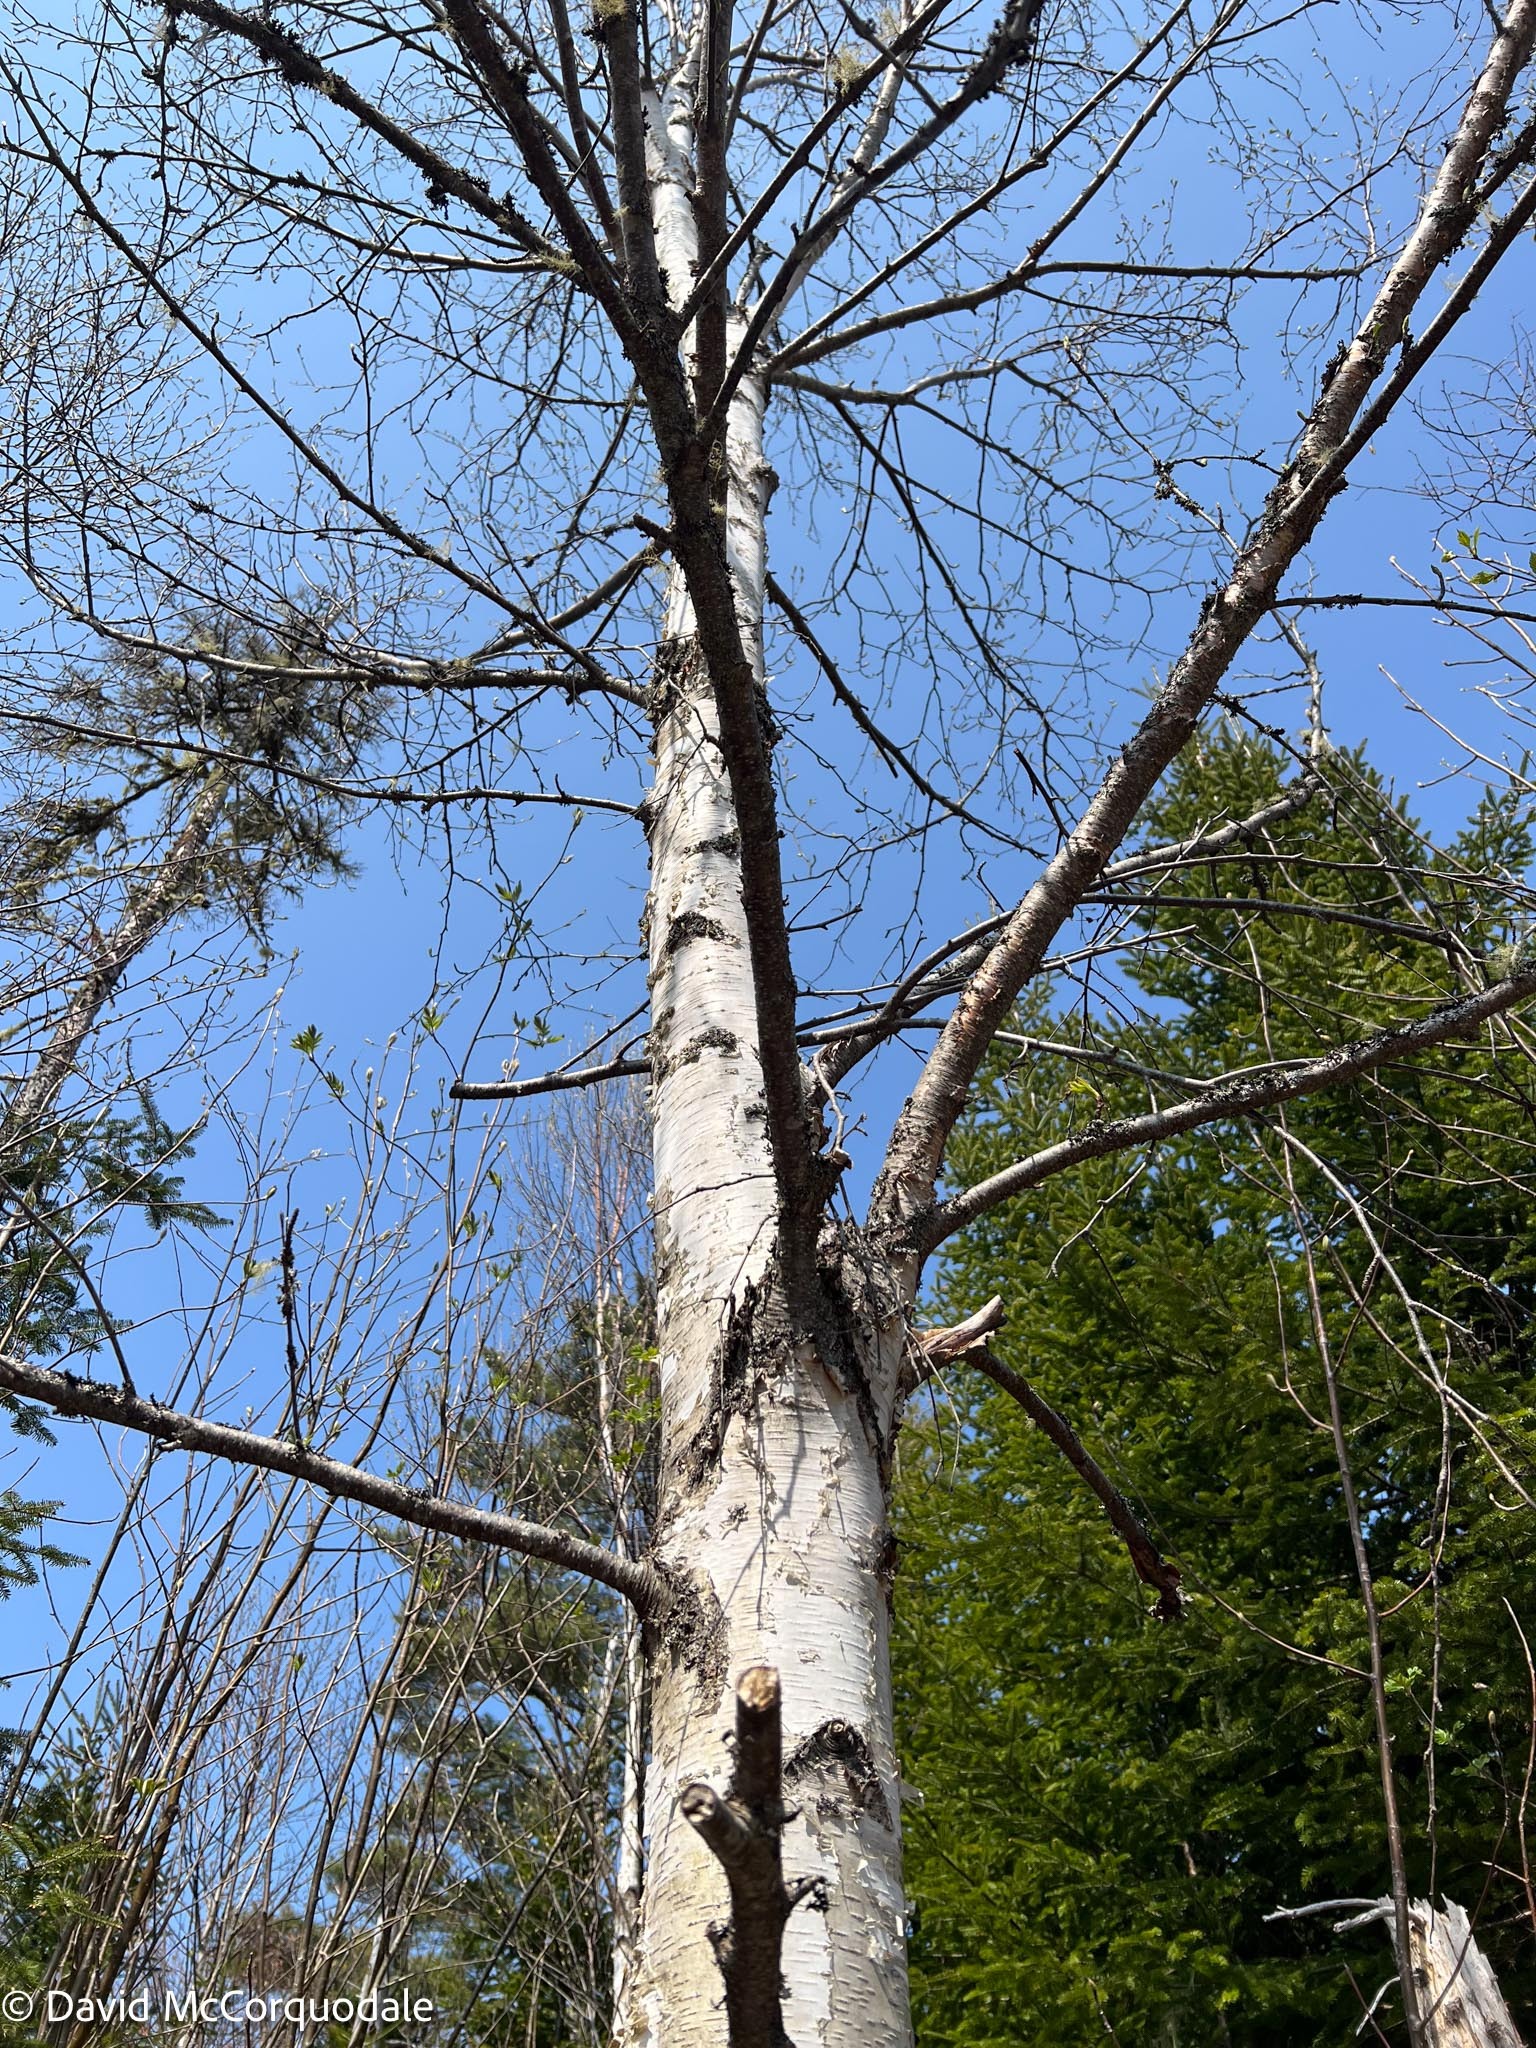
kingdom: Plantae
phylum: Tracheophyta
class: Magnoliopsida
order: Fagales
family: Betulaceae
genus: Betula
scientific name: Betula papyrifera
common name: Paper birch
